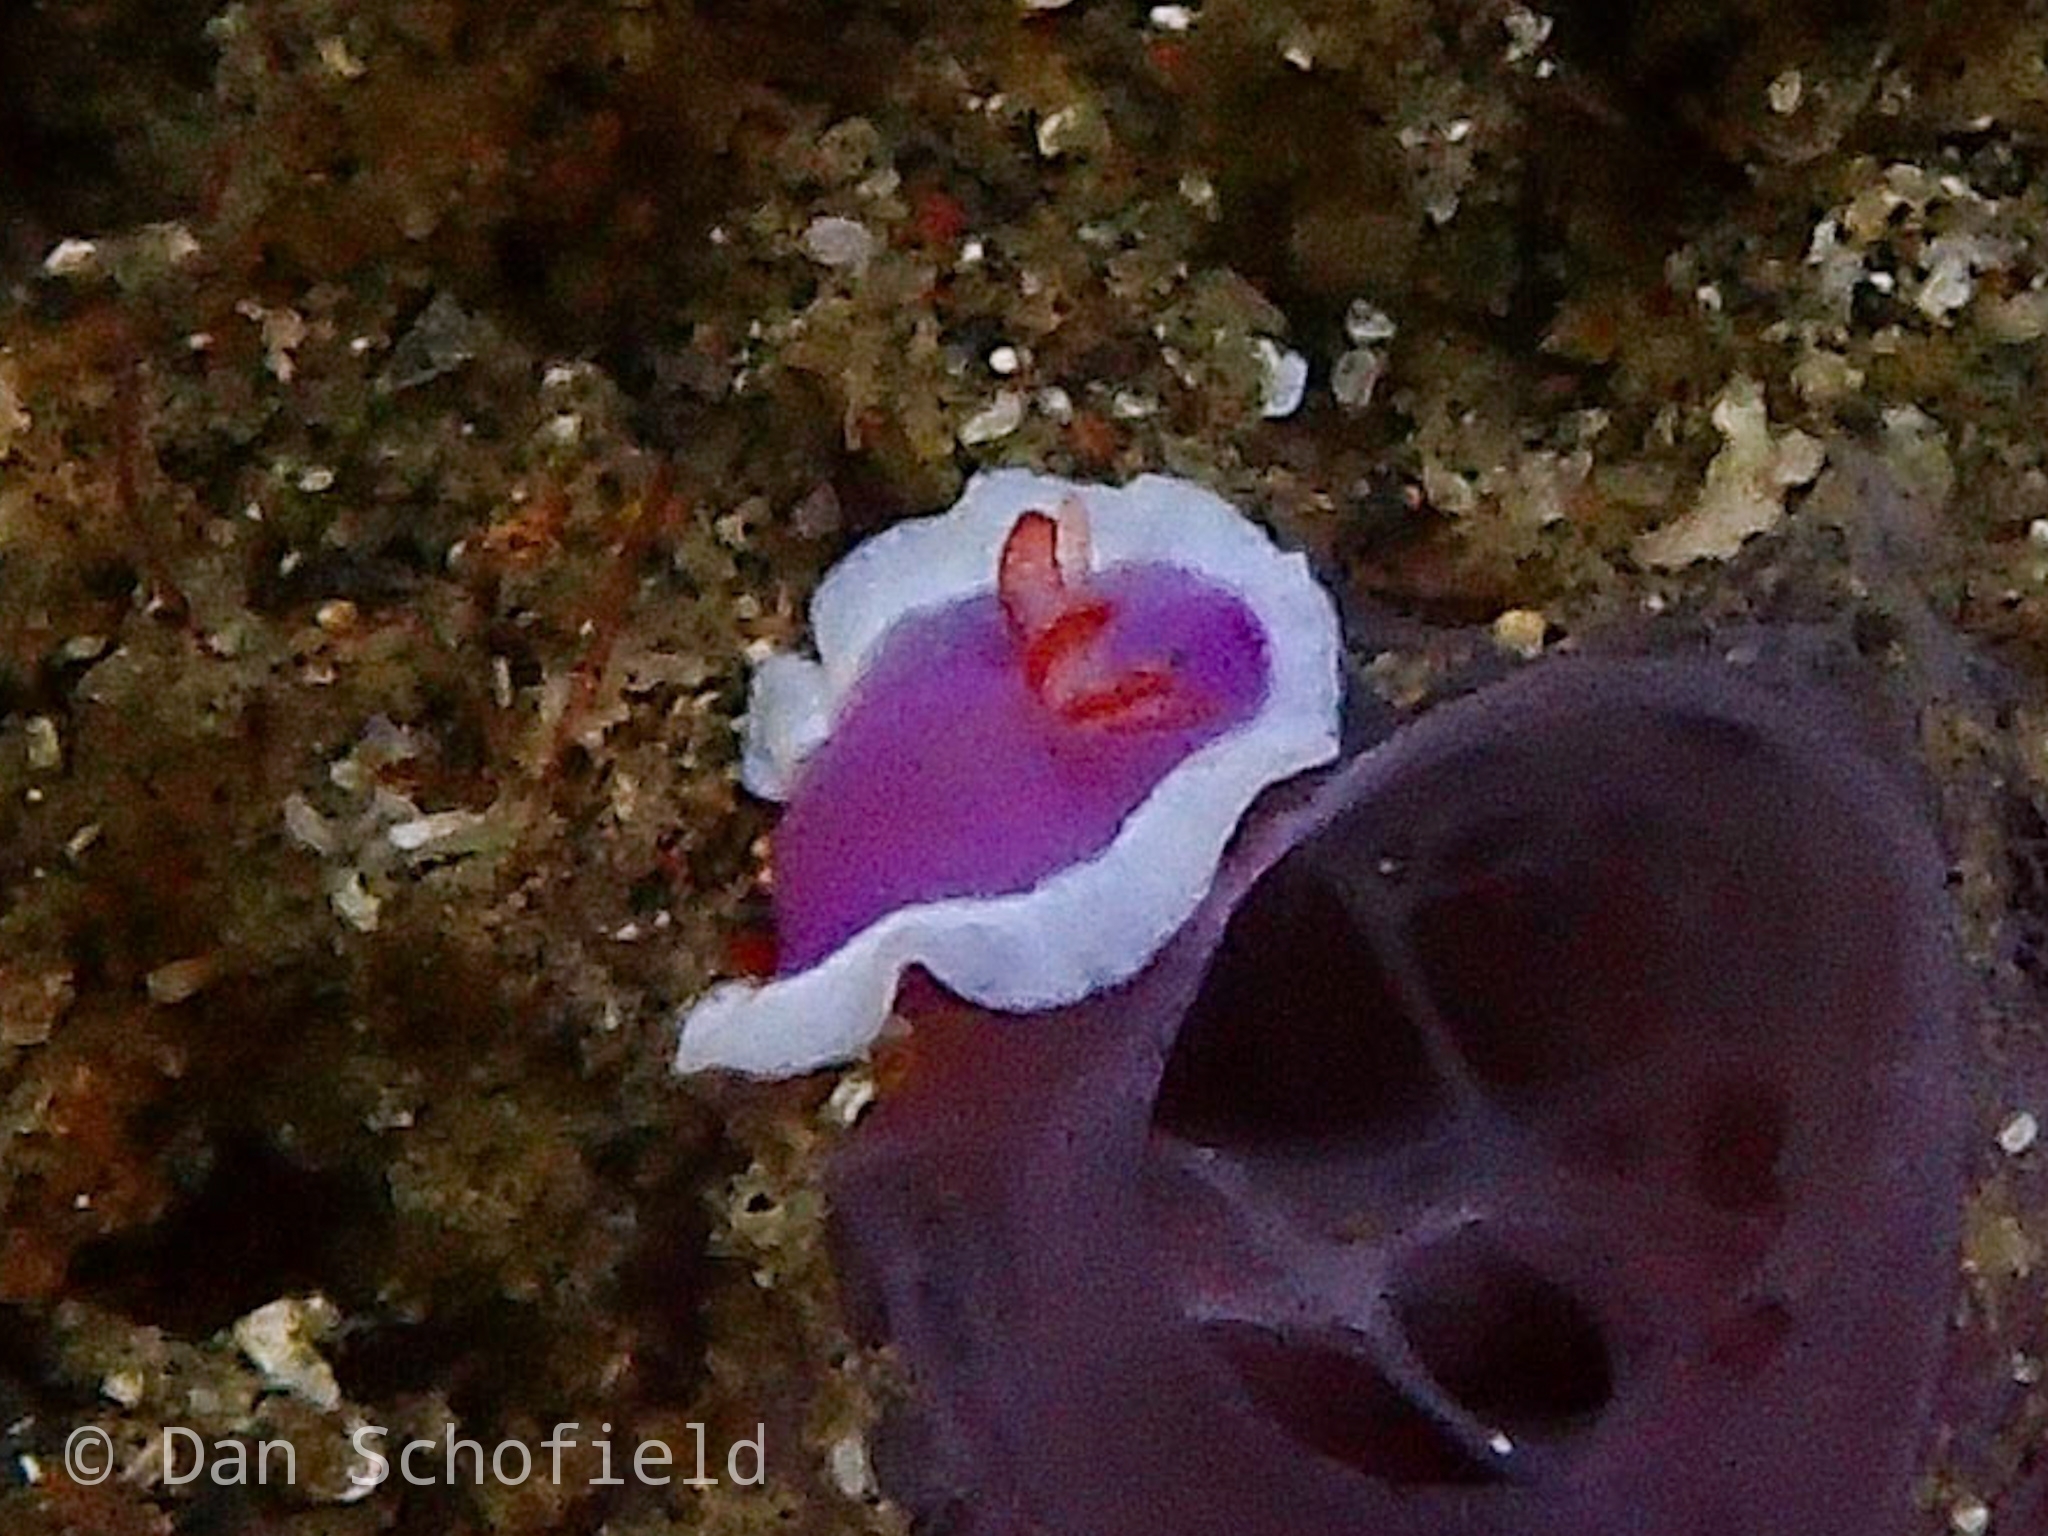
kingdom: Animalia
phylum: Mollusca
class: Gastropoda
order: Nudibranchia
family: Chromodorididae
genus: Thorunna
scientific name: Thorunna halourga
